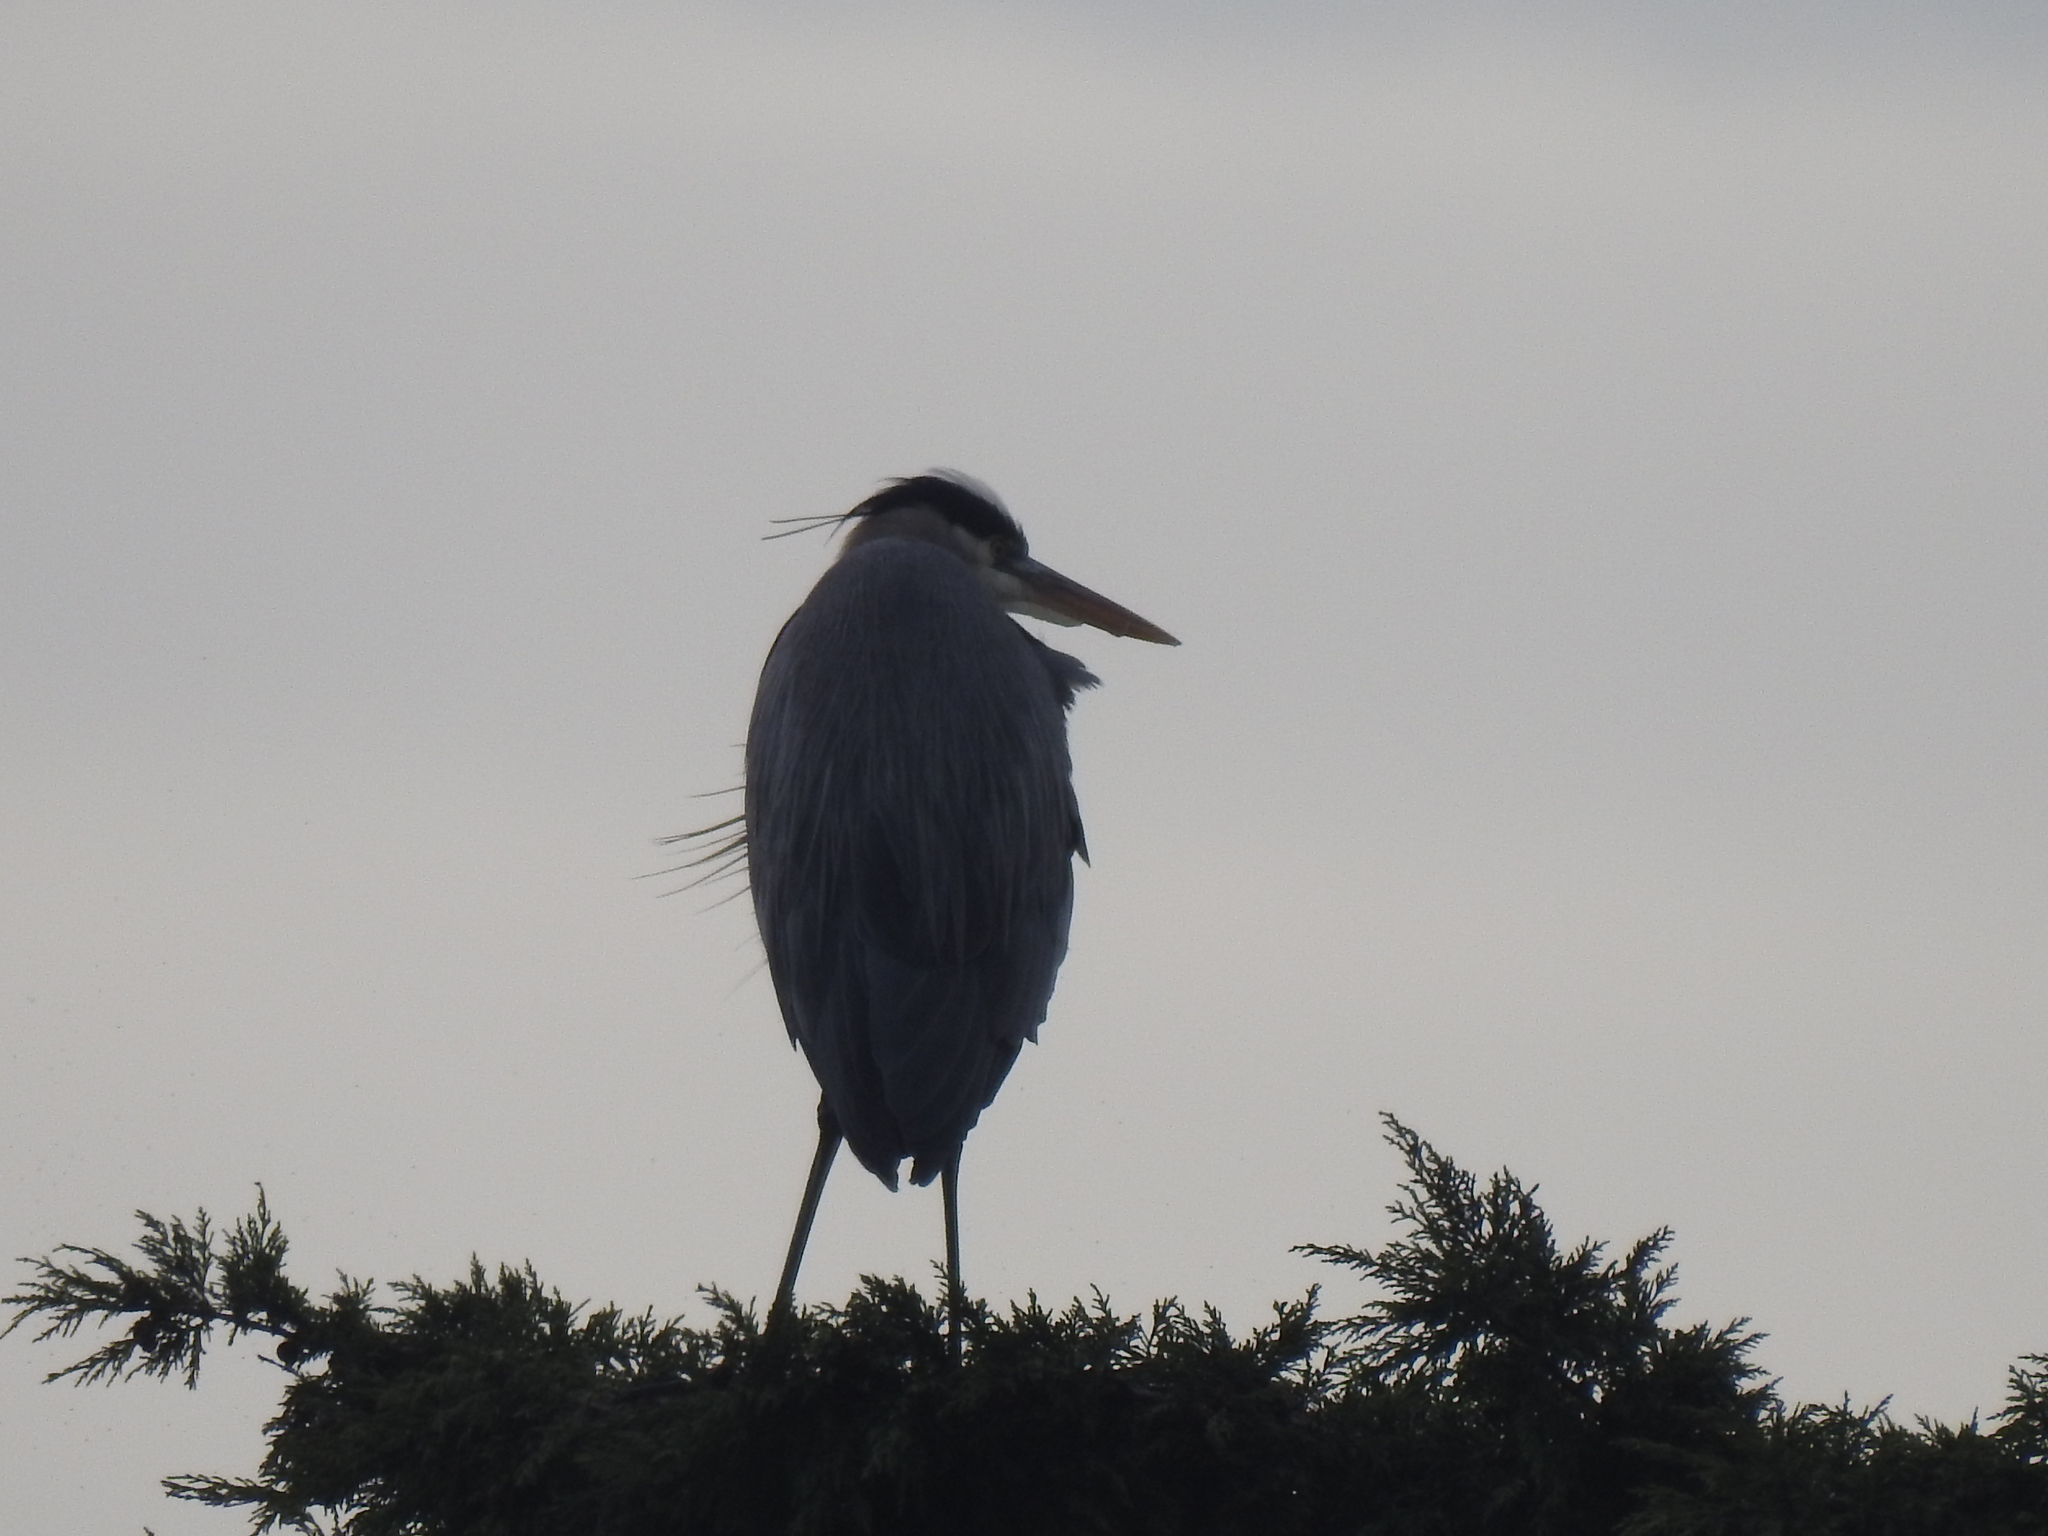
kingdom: Animalia
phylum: Chordata
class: Aves
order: Pelecaniformes
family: Ardeidae
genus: Ardea
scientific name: Ardea herodias
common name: Great blue heron
